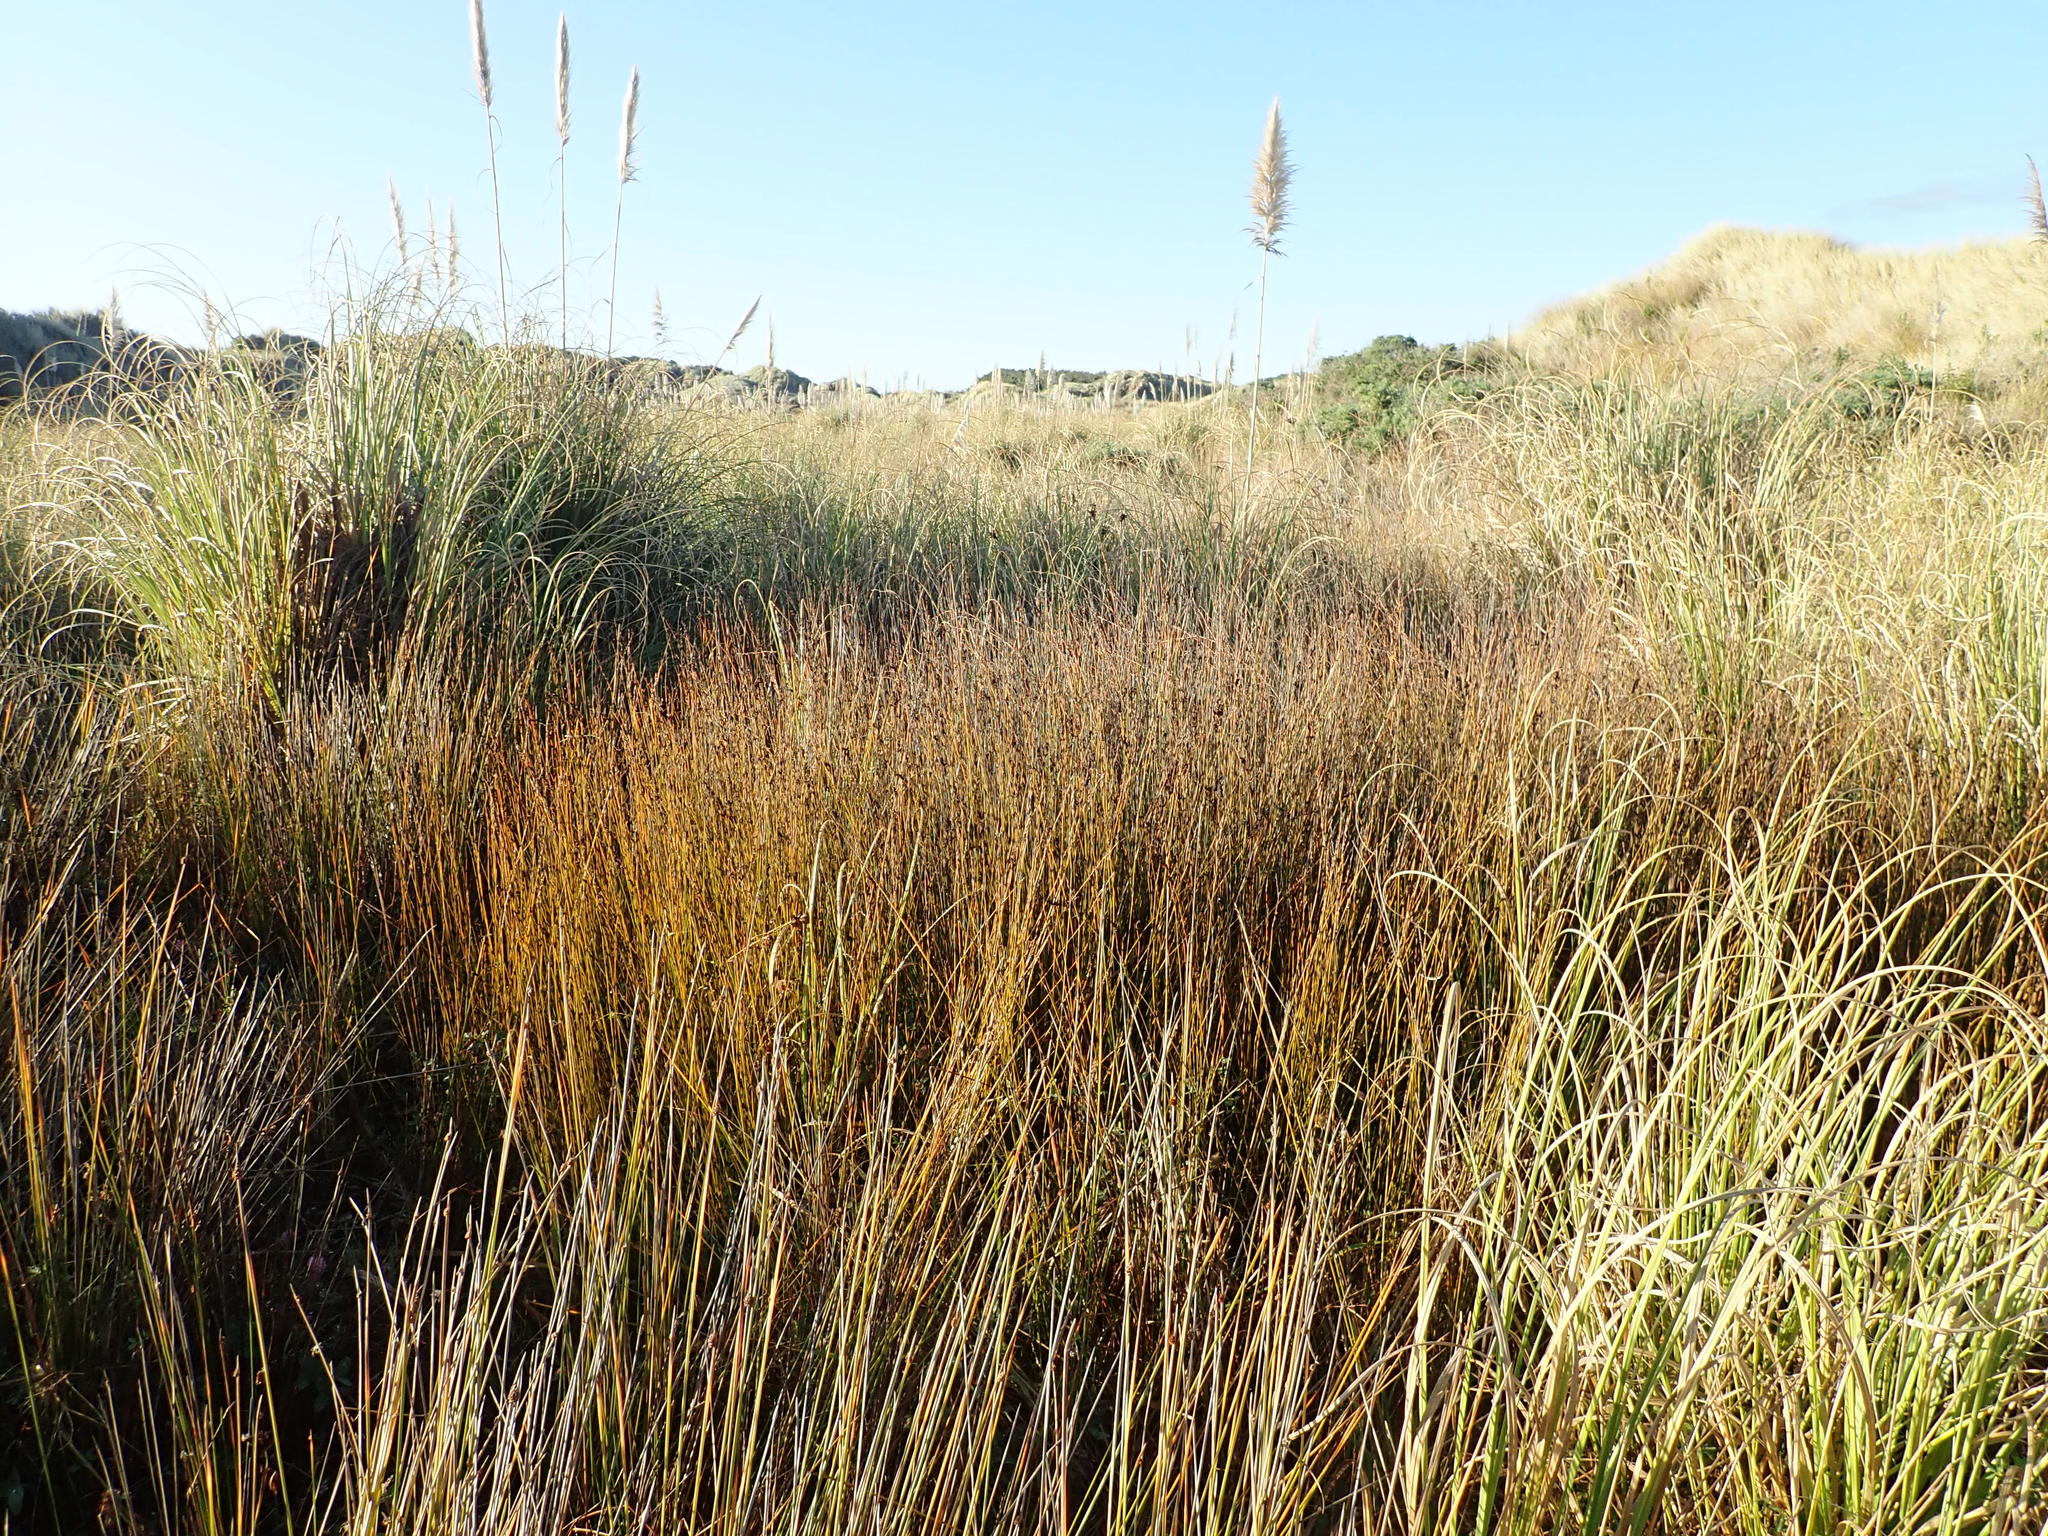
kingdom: Plantae
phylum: Tracheophyta
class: Liliopsida
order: Poales
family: Restionaceae
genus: Apodasmia
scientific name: Apodasmia similis
